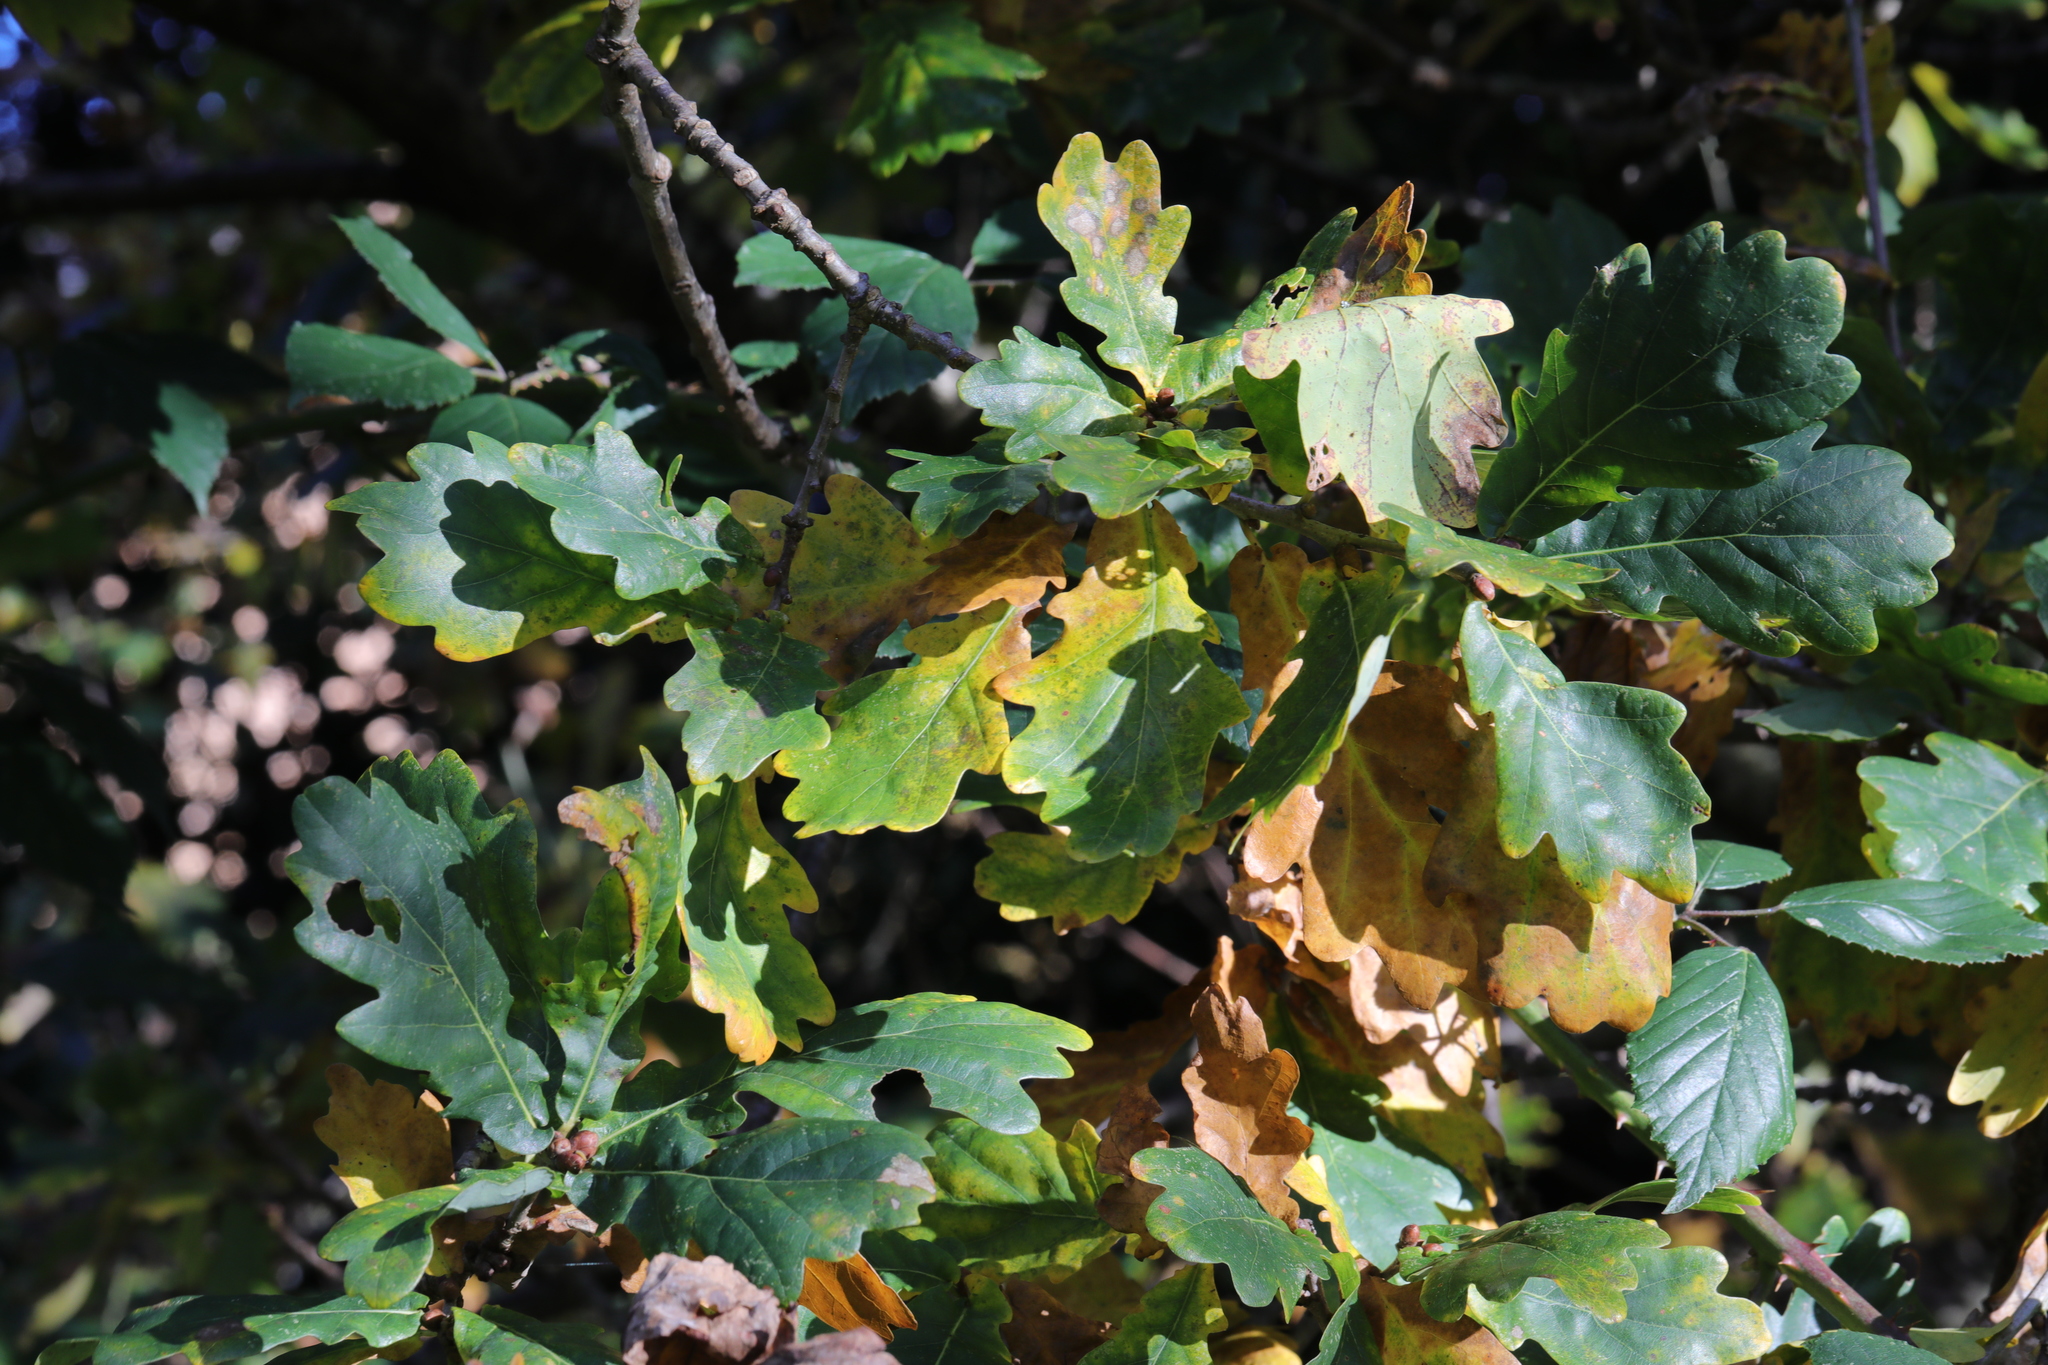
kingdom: Plantae
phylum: Tracheophyta
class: Magnoliopsida
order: Fagales
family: Fagaceae
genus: Quercus
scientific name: Quercus robur
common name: Pedunculate oak
